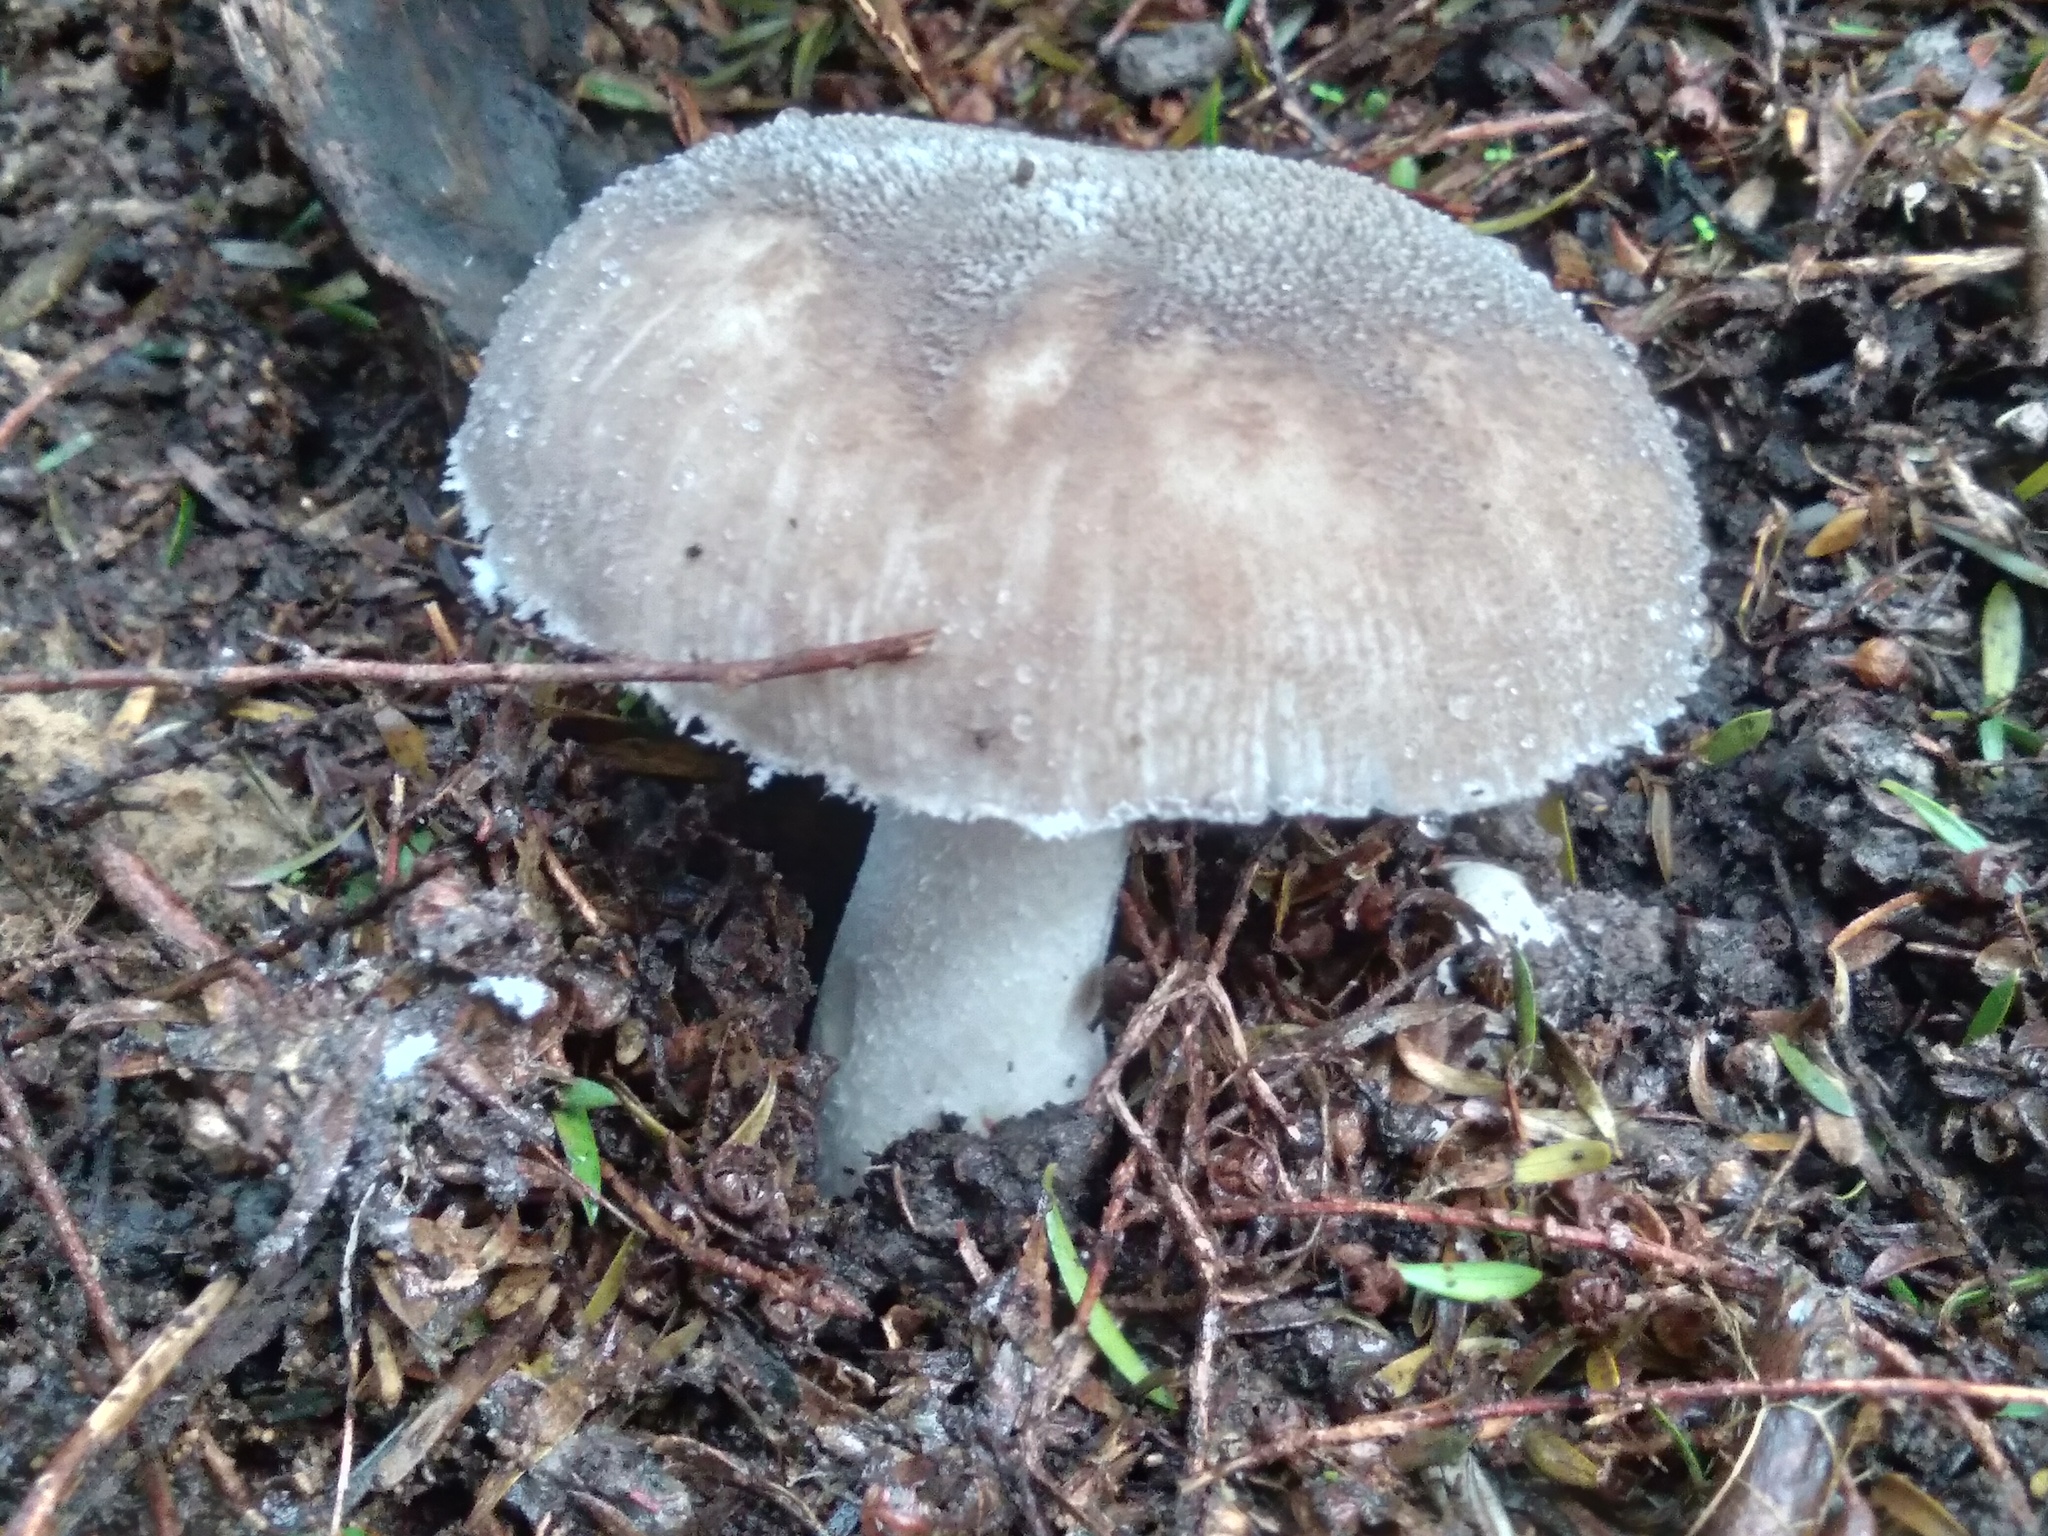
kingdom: Fungi
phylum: Basidiomycota
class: Agaricomycetes
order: Agaricales
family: Amanitaceae
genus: Amanita
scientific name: Amanita nehuta
